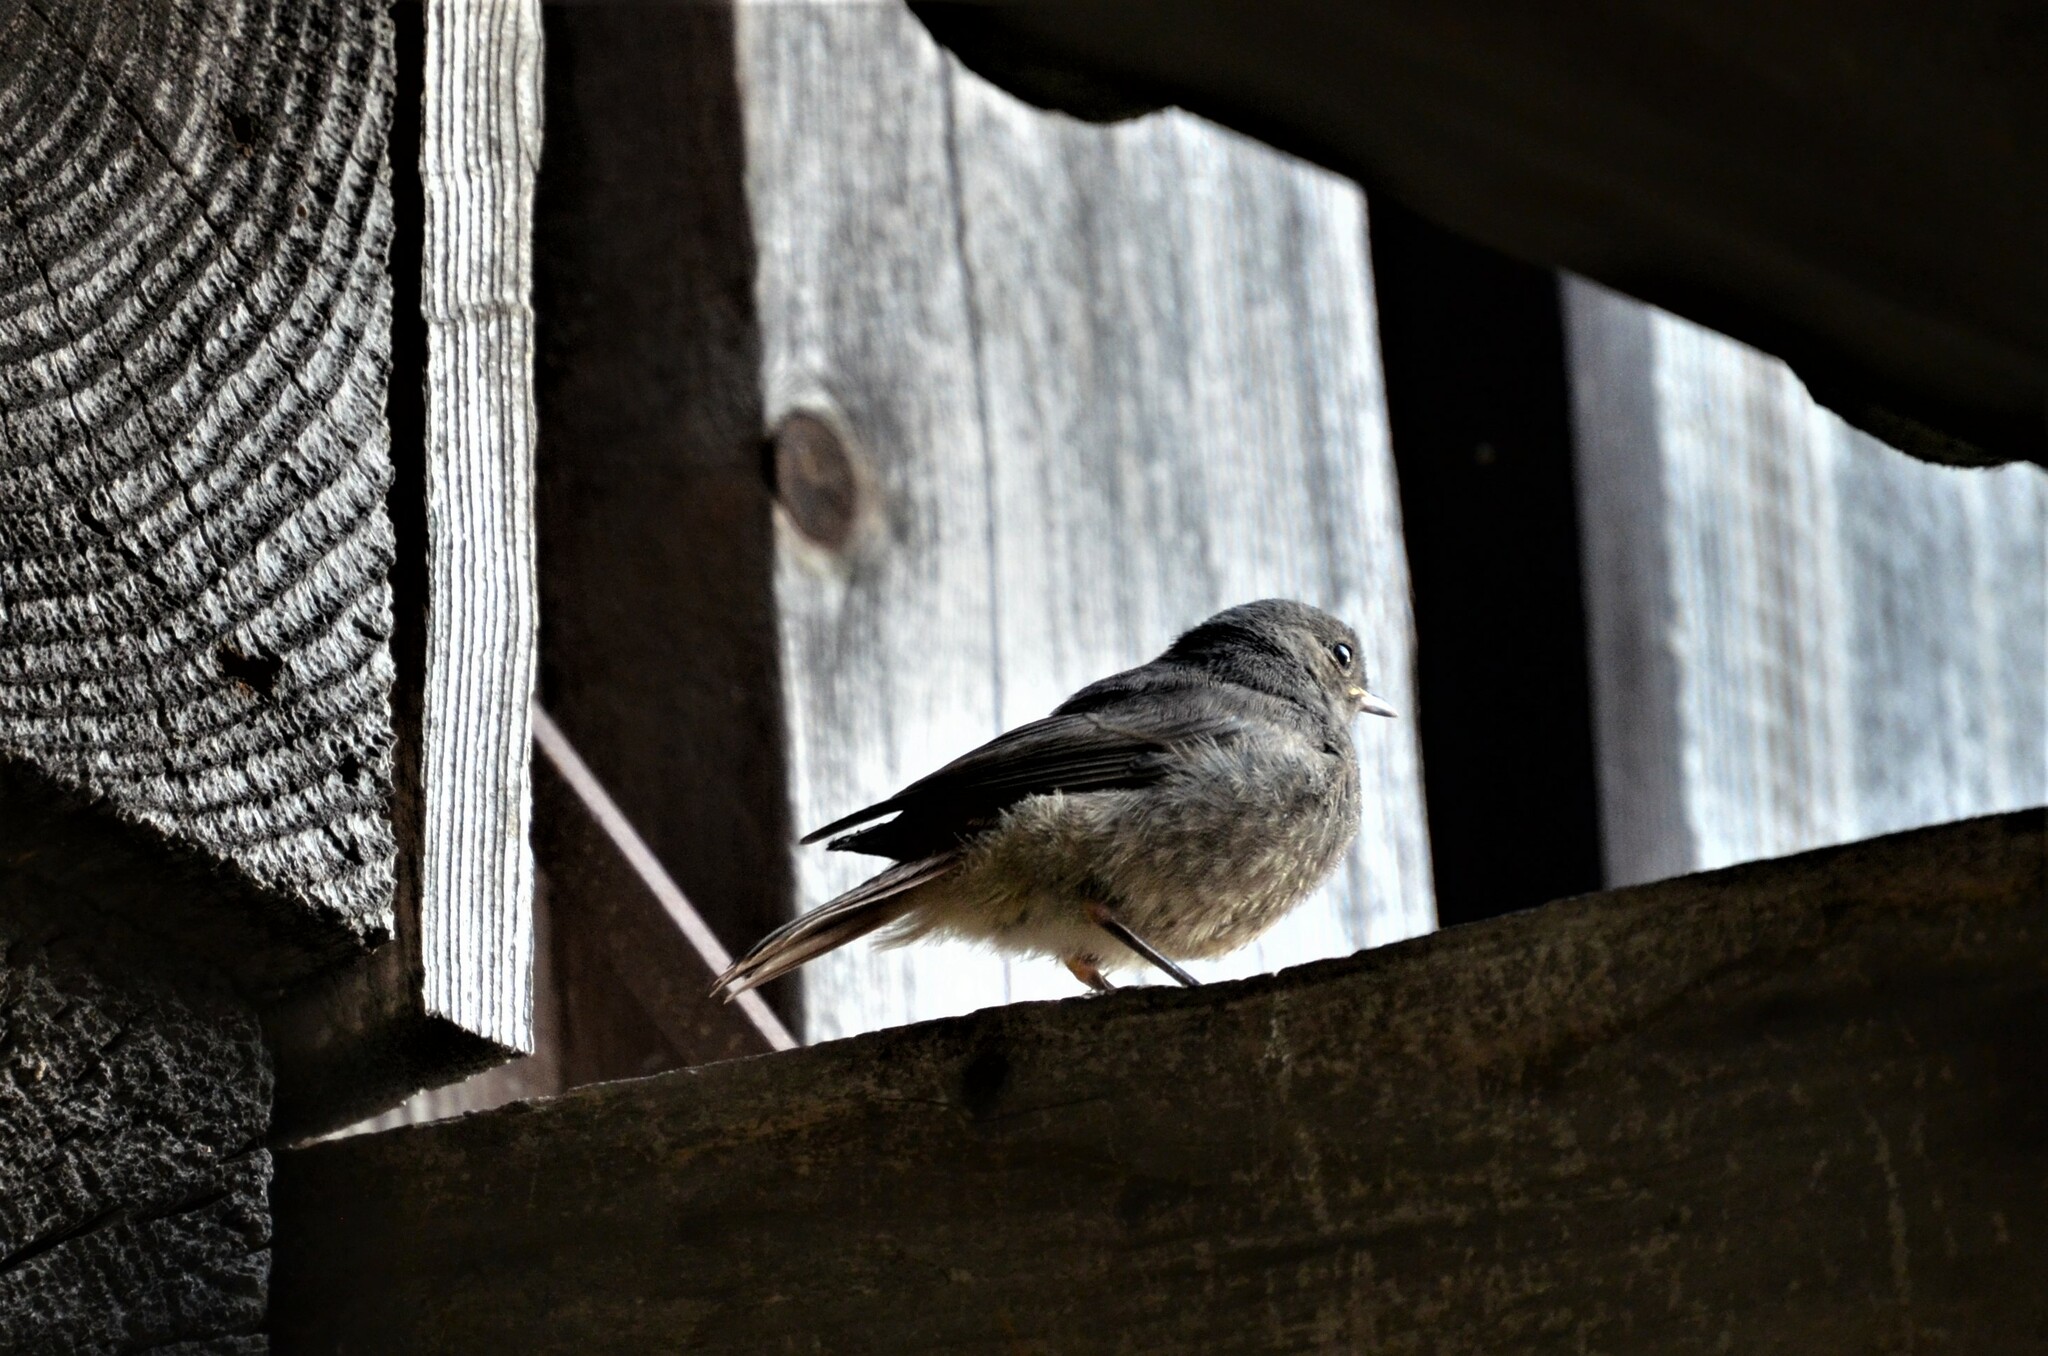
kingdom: Animalia
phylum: Chordata
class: Aves
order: Passeriformes
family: Muscicapidae
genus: Phoenicurus
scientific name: Phoenicurus ochruros
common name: Black redstart
